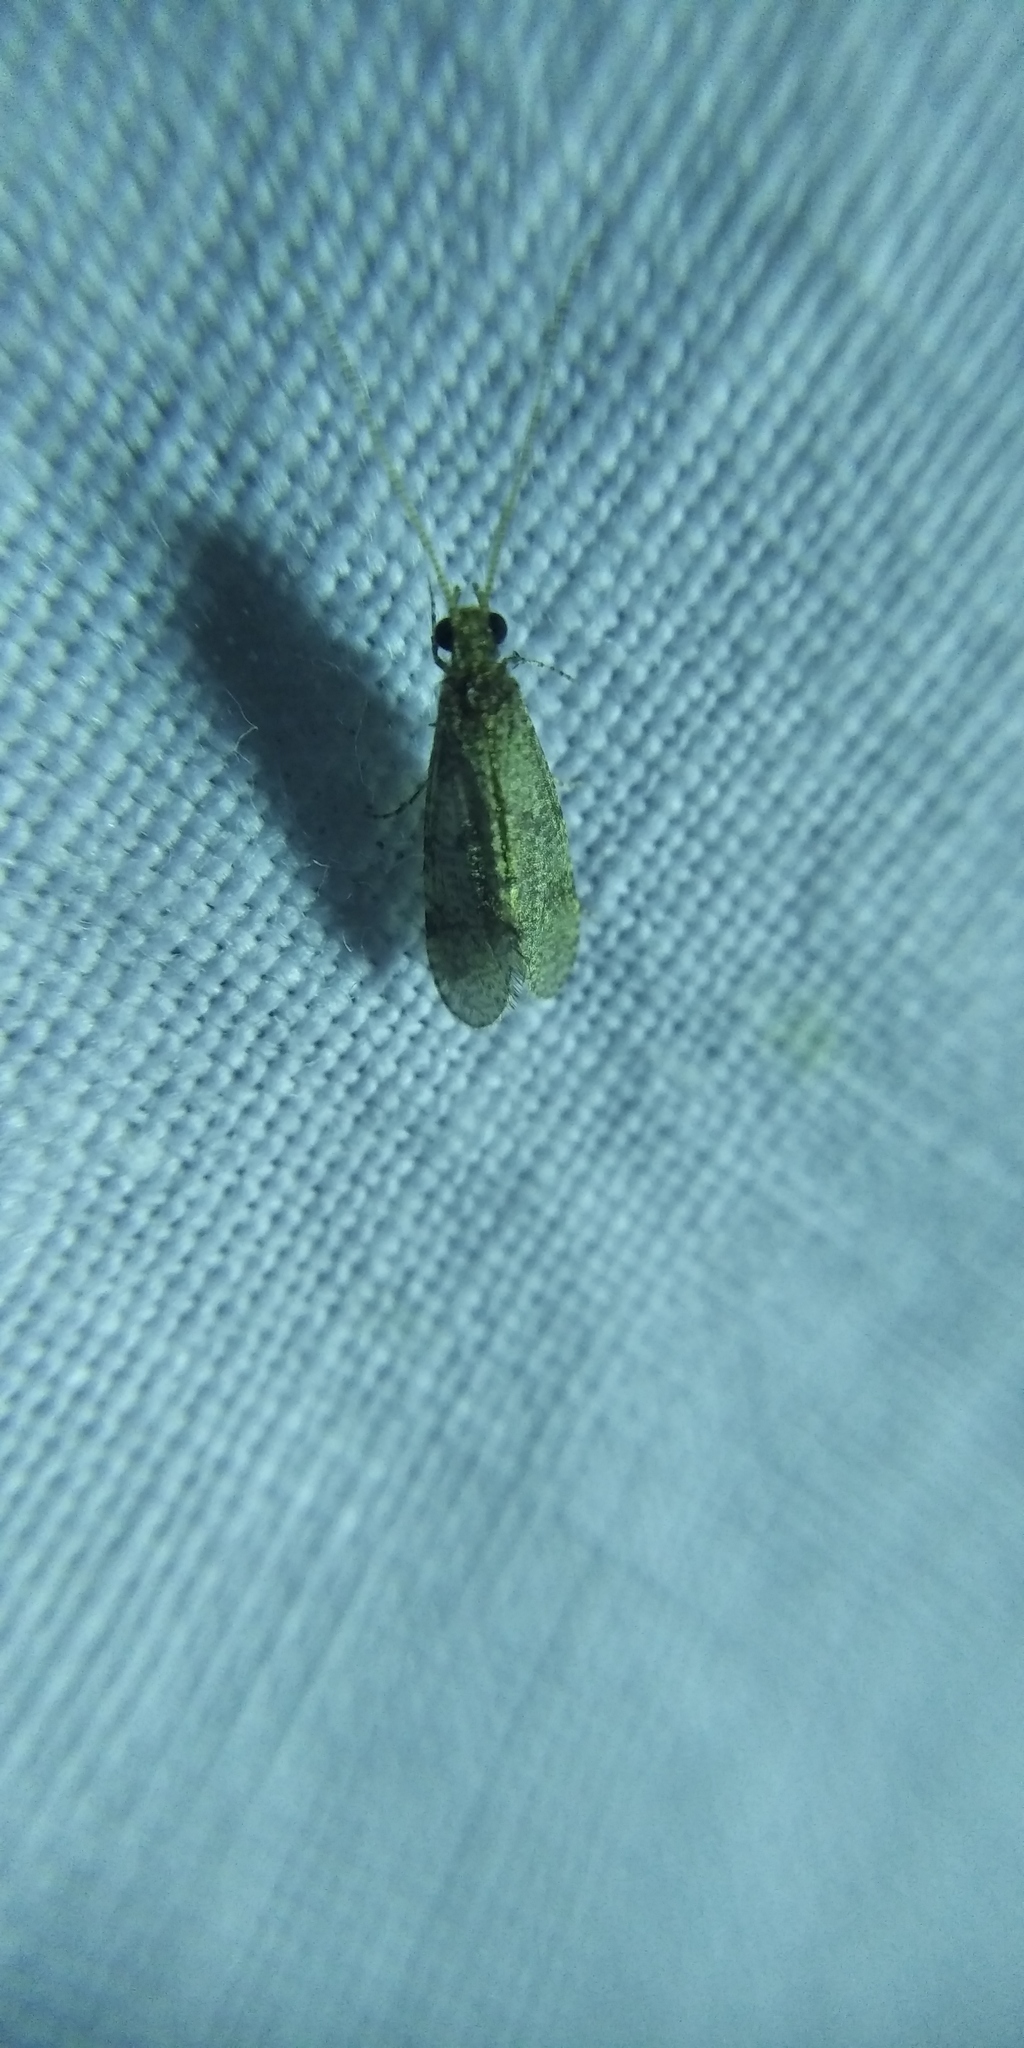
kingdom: Animalia
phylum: Arthropoda
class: Insecta
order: Trichoptera
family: Ecnomidae
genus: Ecnomus
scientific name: Ecnomus tenellus
